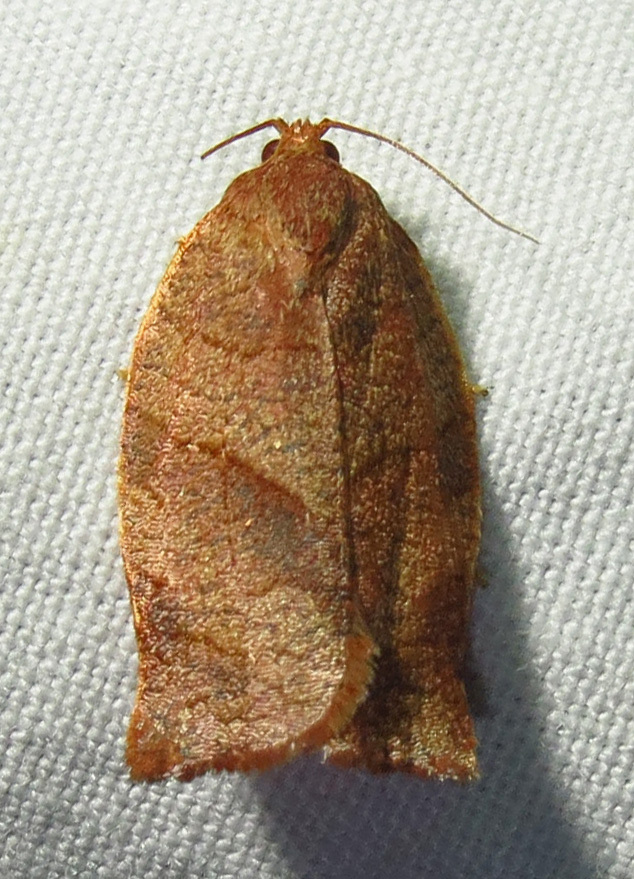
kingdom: Animalia
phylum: Arthropoda
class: Insecta
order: Lepidoptera
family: Tortricidae
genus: Choristoneura
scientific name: Choristoneura rosaceana
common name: Oblique-banded leafroller moth
